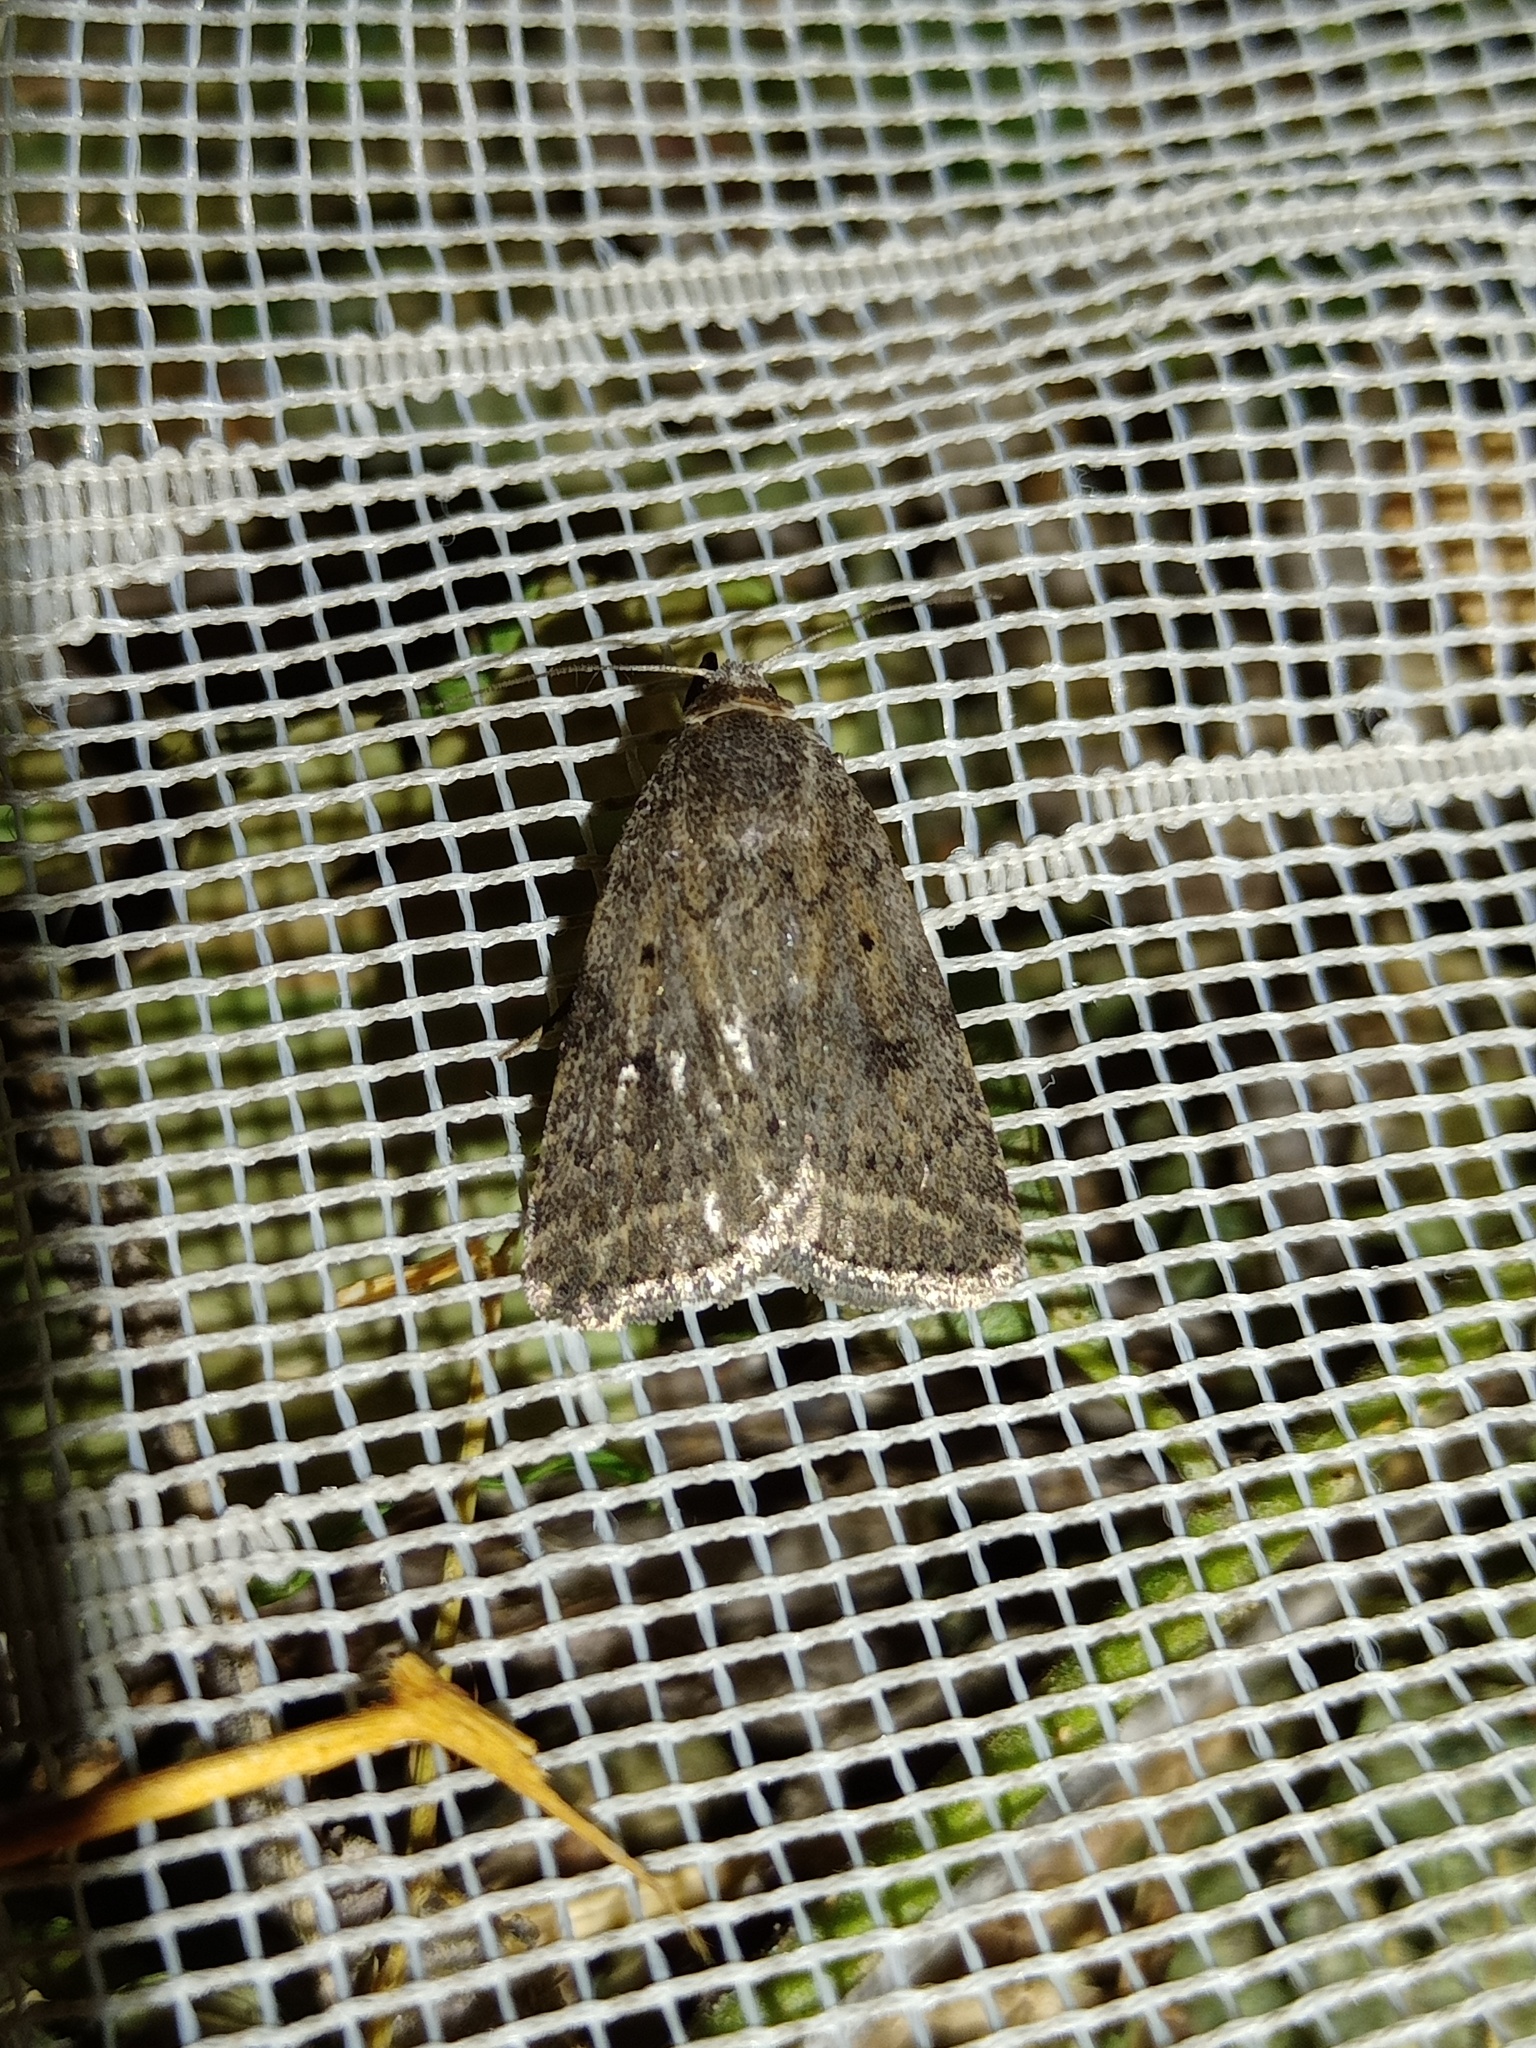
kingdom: Animalia
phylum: Arthropoda
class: Insecta
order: Lepidoptera
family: Noctuidae
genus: Athetis
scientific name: Athetis gluteosa
